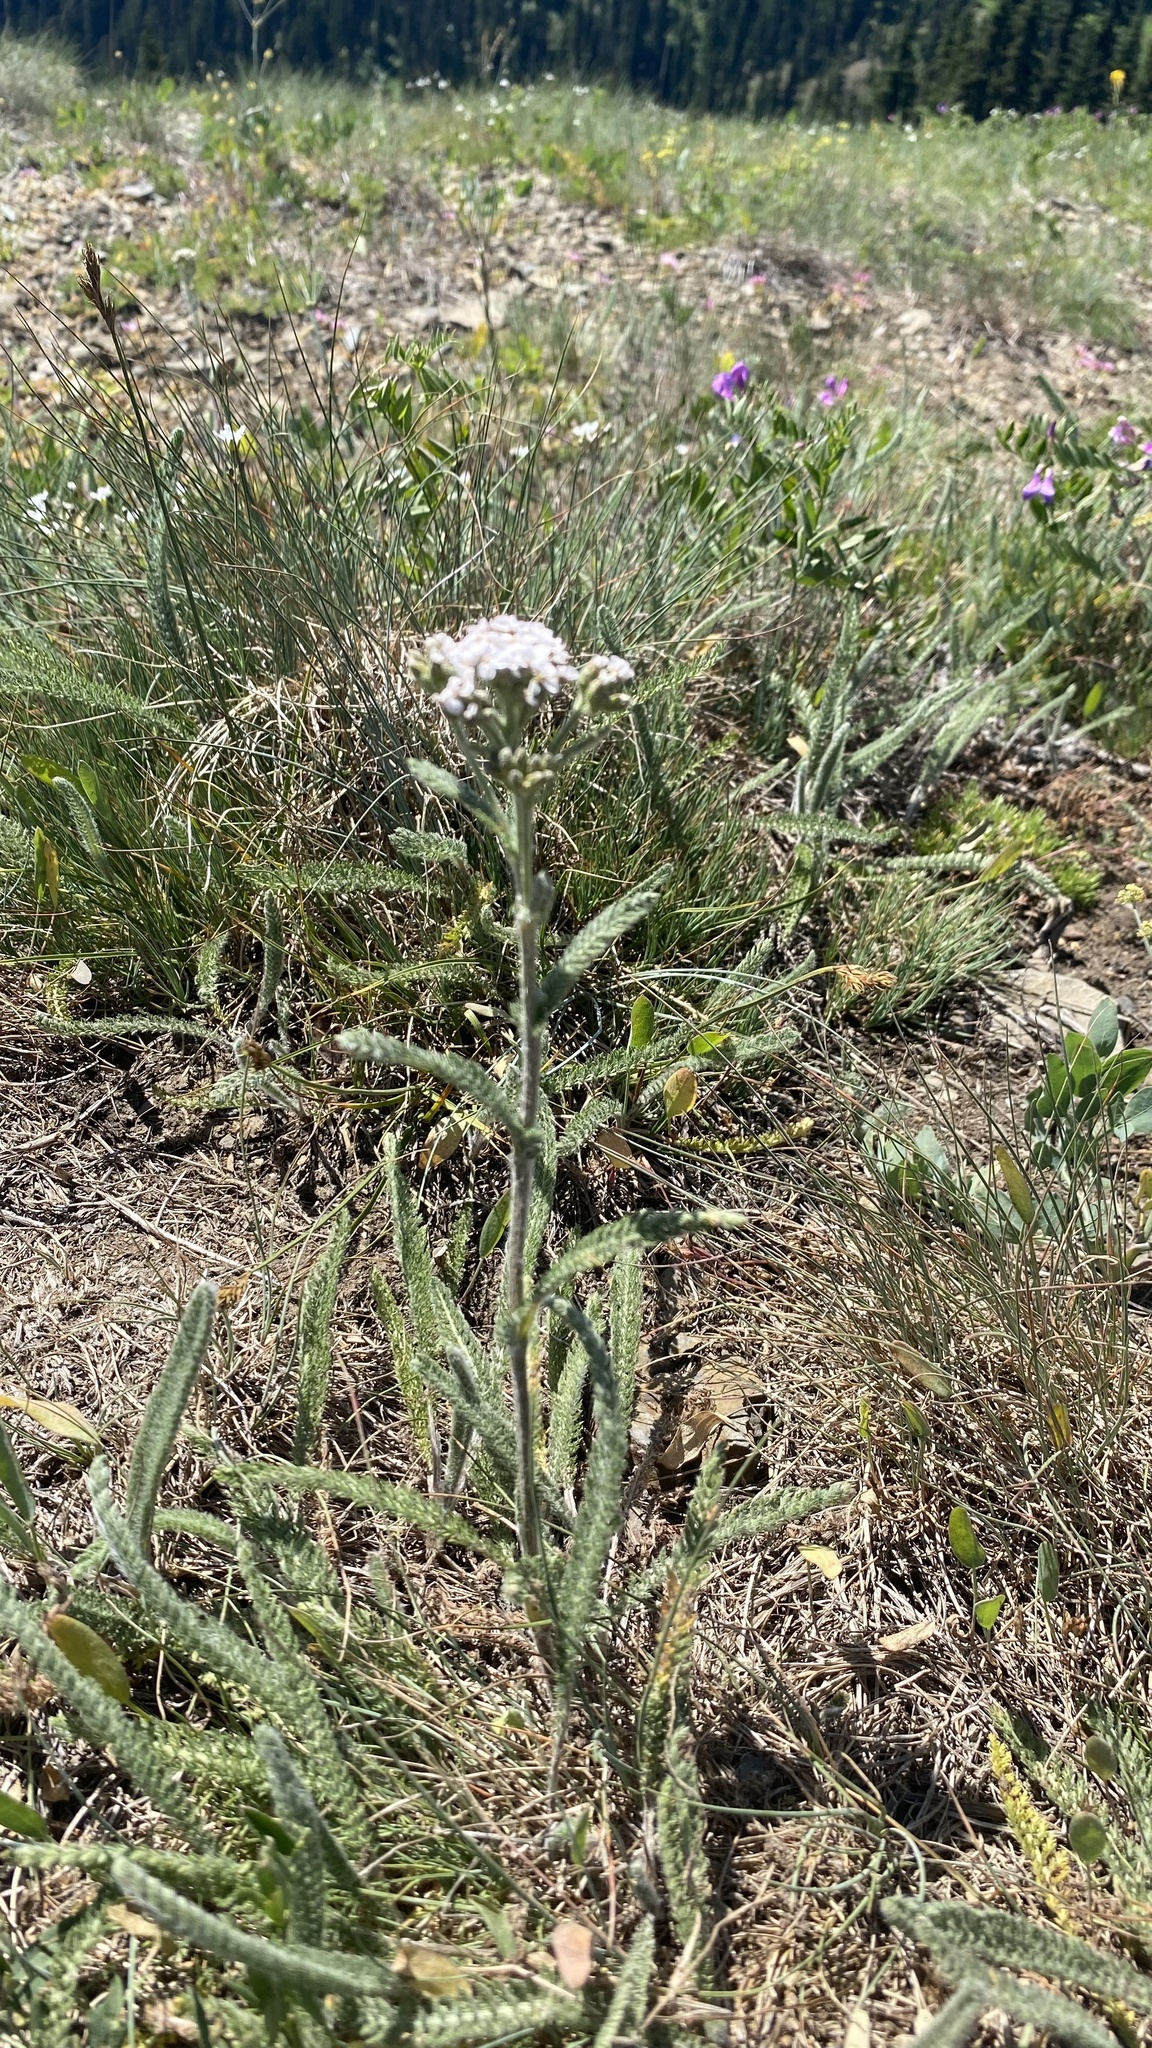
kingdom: Plantae
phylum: Tracheophyta
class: Magnoliopsida
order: Asterales
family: Asteraceae
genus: Achillea
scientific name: Achillea millefolium
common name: Yarrow
